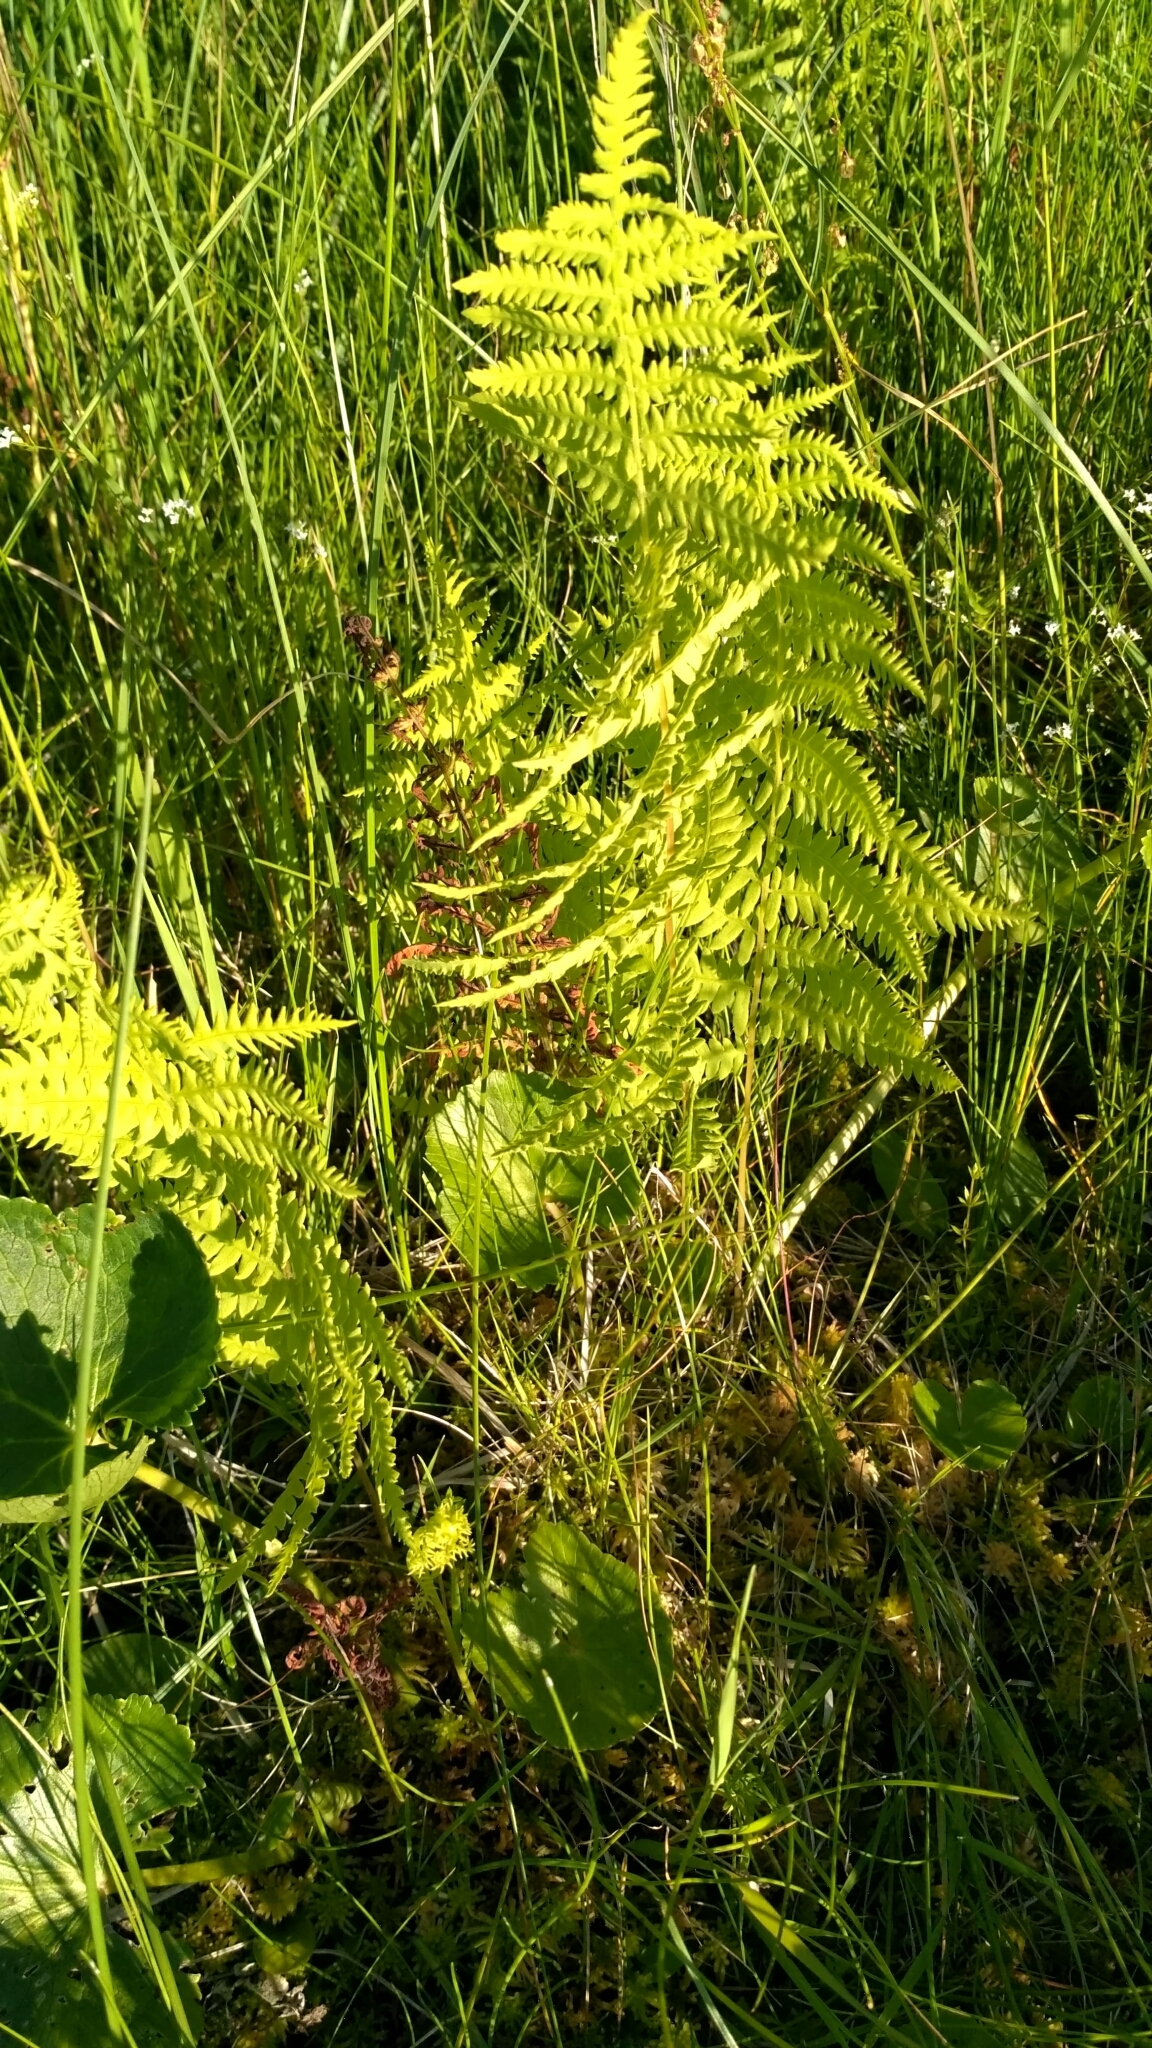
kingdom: Plantae
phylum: Tracheophyta
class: Polypodiopsida
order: Polypodiales
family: Thelypteridaceae
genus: Thelypteris
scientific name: Thelypteris palustris
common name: Marsh fern
